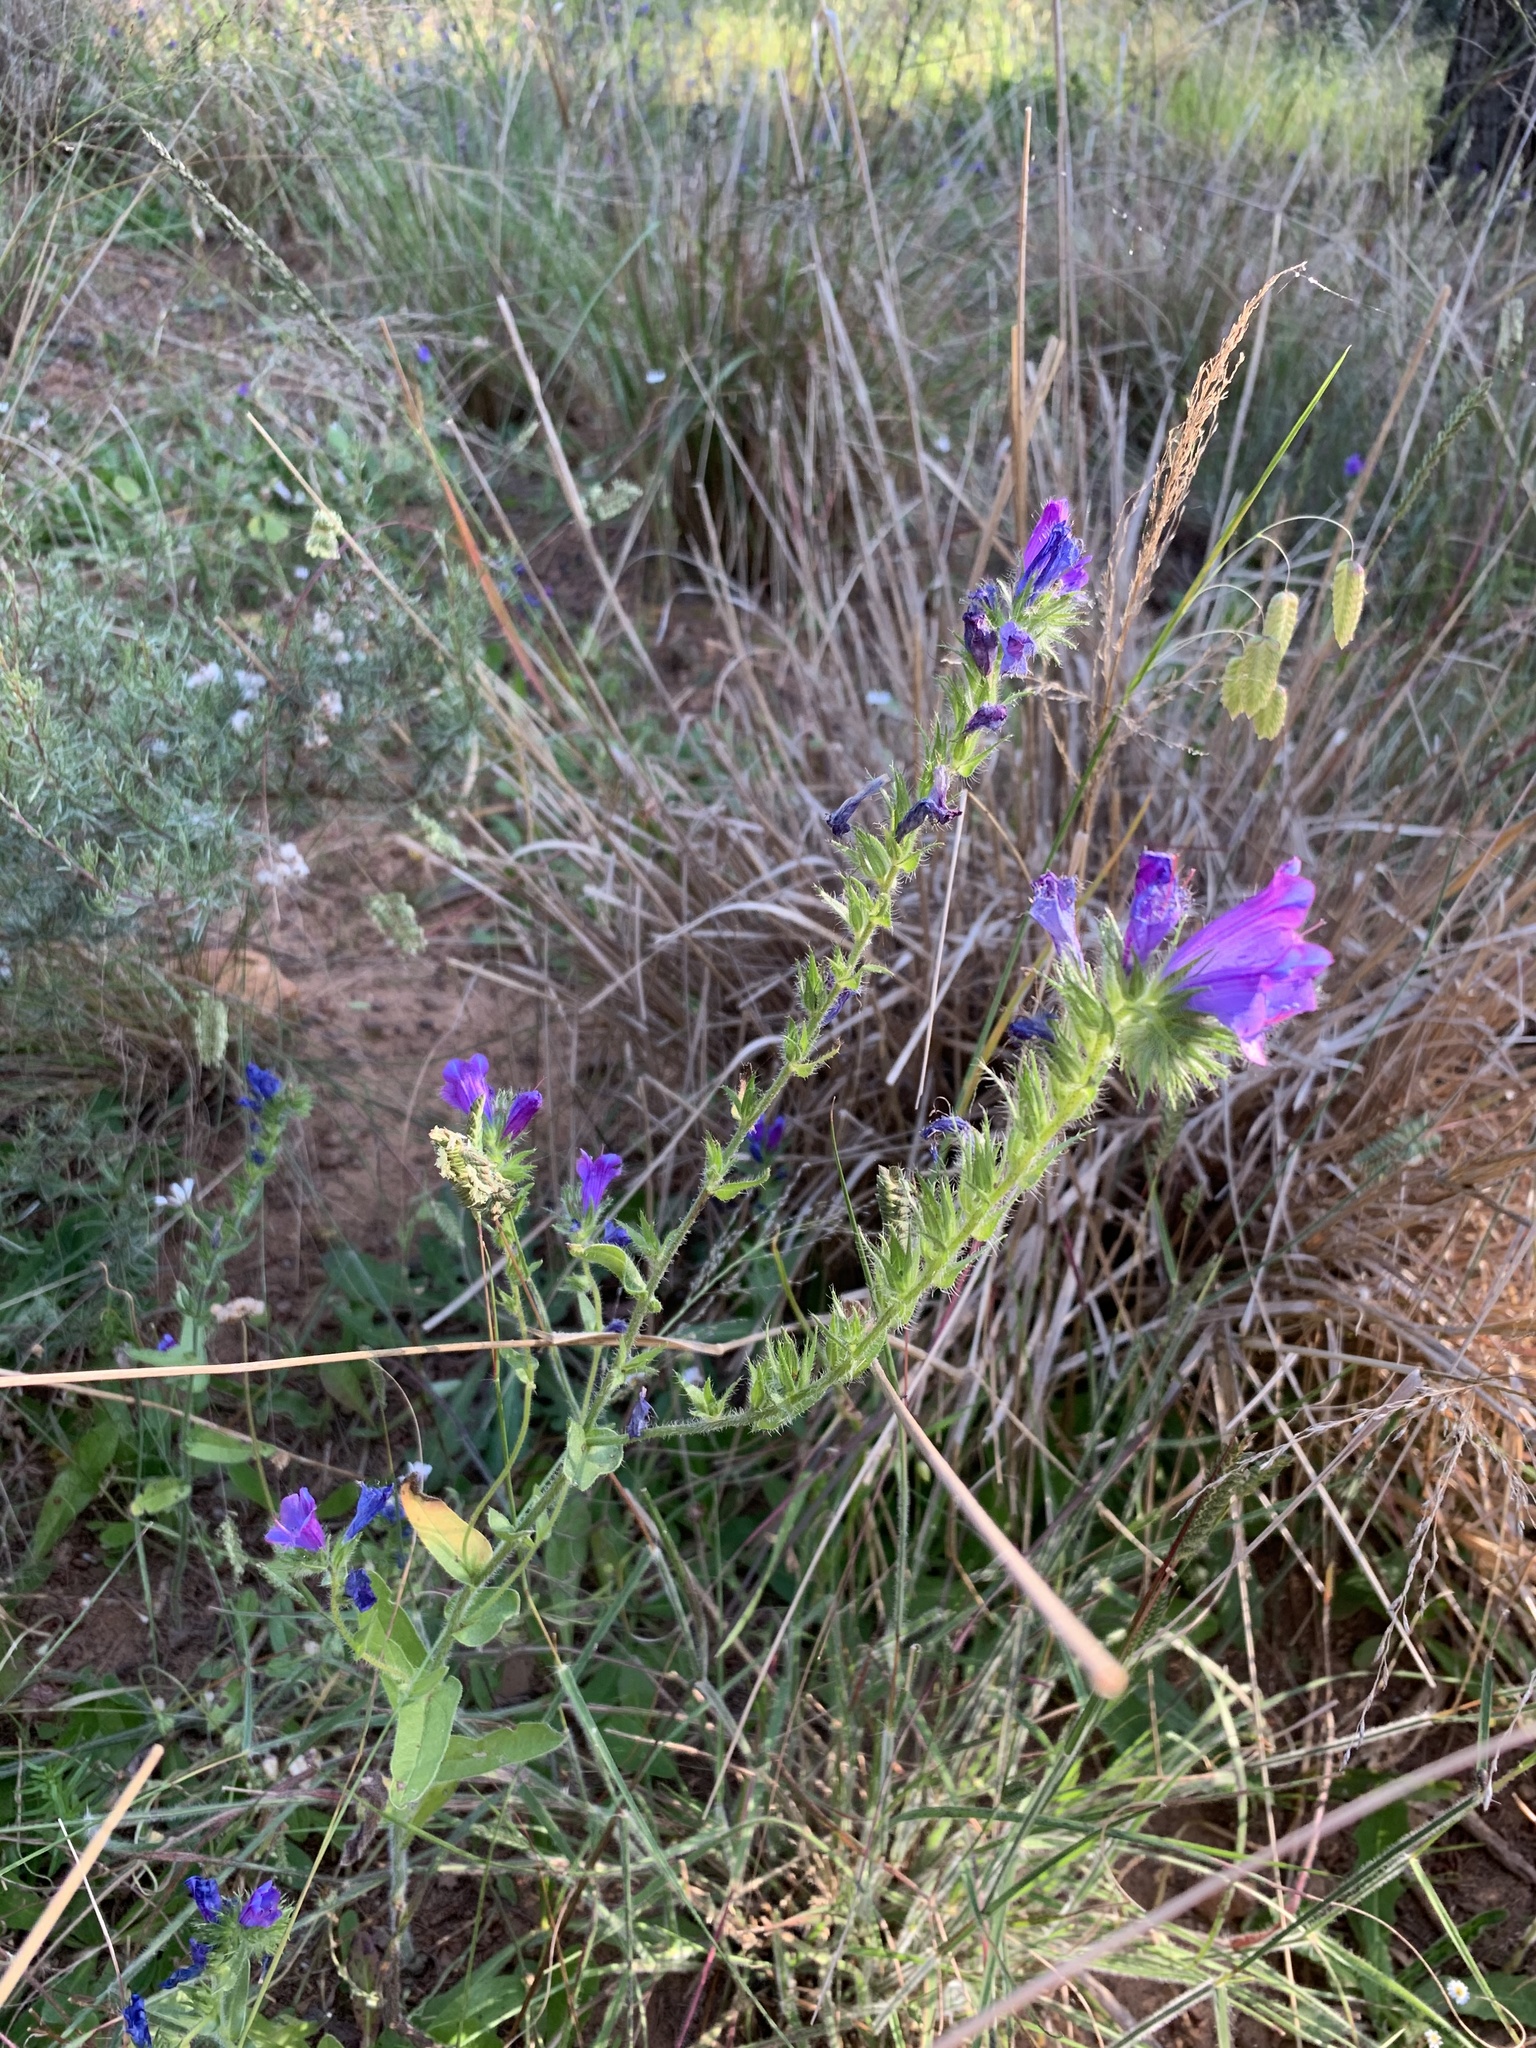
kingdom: Plantae
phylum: Tracheophyta
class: Magnoliopsida
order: Boraginales
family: Boraginaceae
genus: Echium
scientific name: Echium plantagineum
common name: Purple viper's-bugloss
